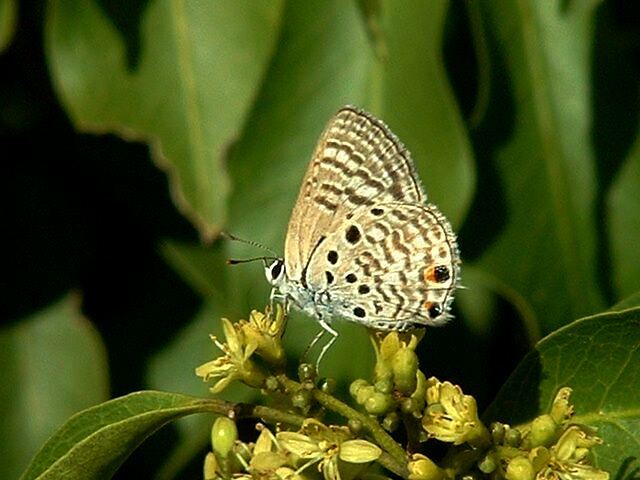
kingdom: Animalia
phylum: Arthropoda
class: Insecta
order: Lepidoptera
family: Lycaenidae
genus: Anthene
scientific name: Anthene amarah
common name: Black-striped hairtail
